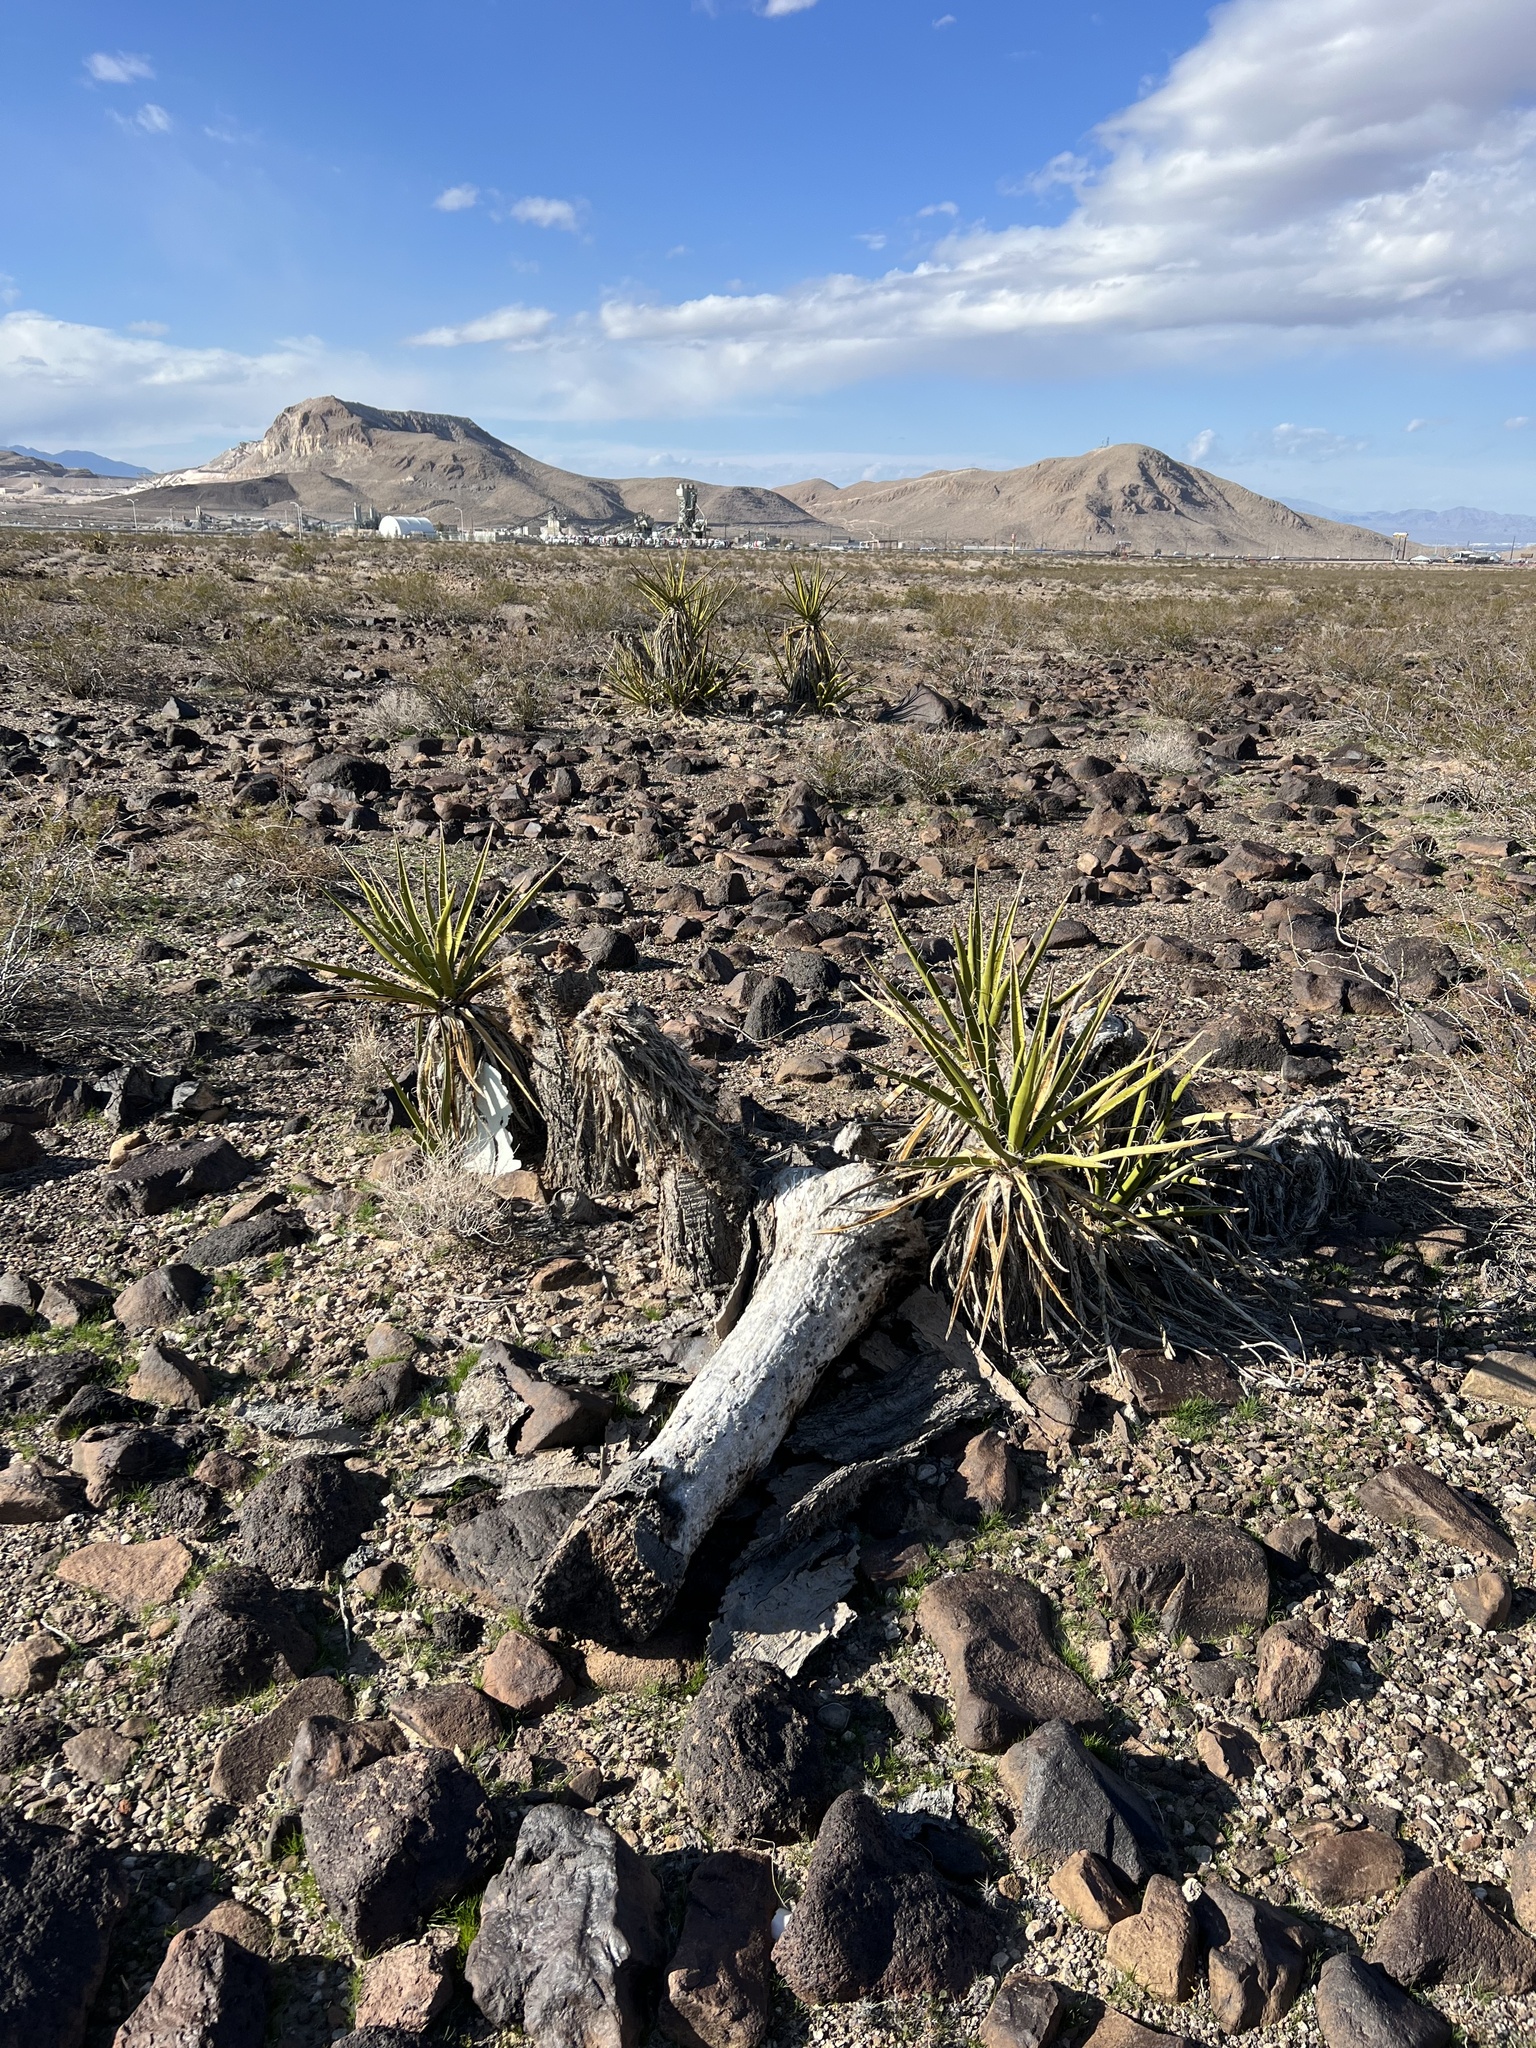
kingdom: Plantae
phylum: Tracheophyta
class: Liliopsida
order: Asparagales
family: Asparagaceae
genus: Yucca
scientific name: Yucca schidigera
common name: Mojave yucca
